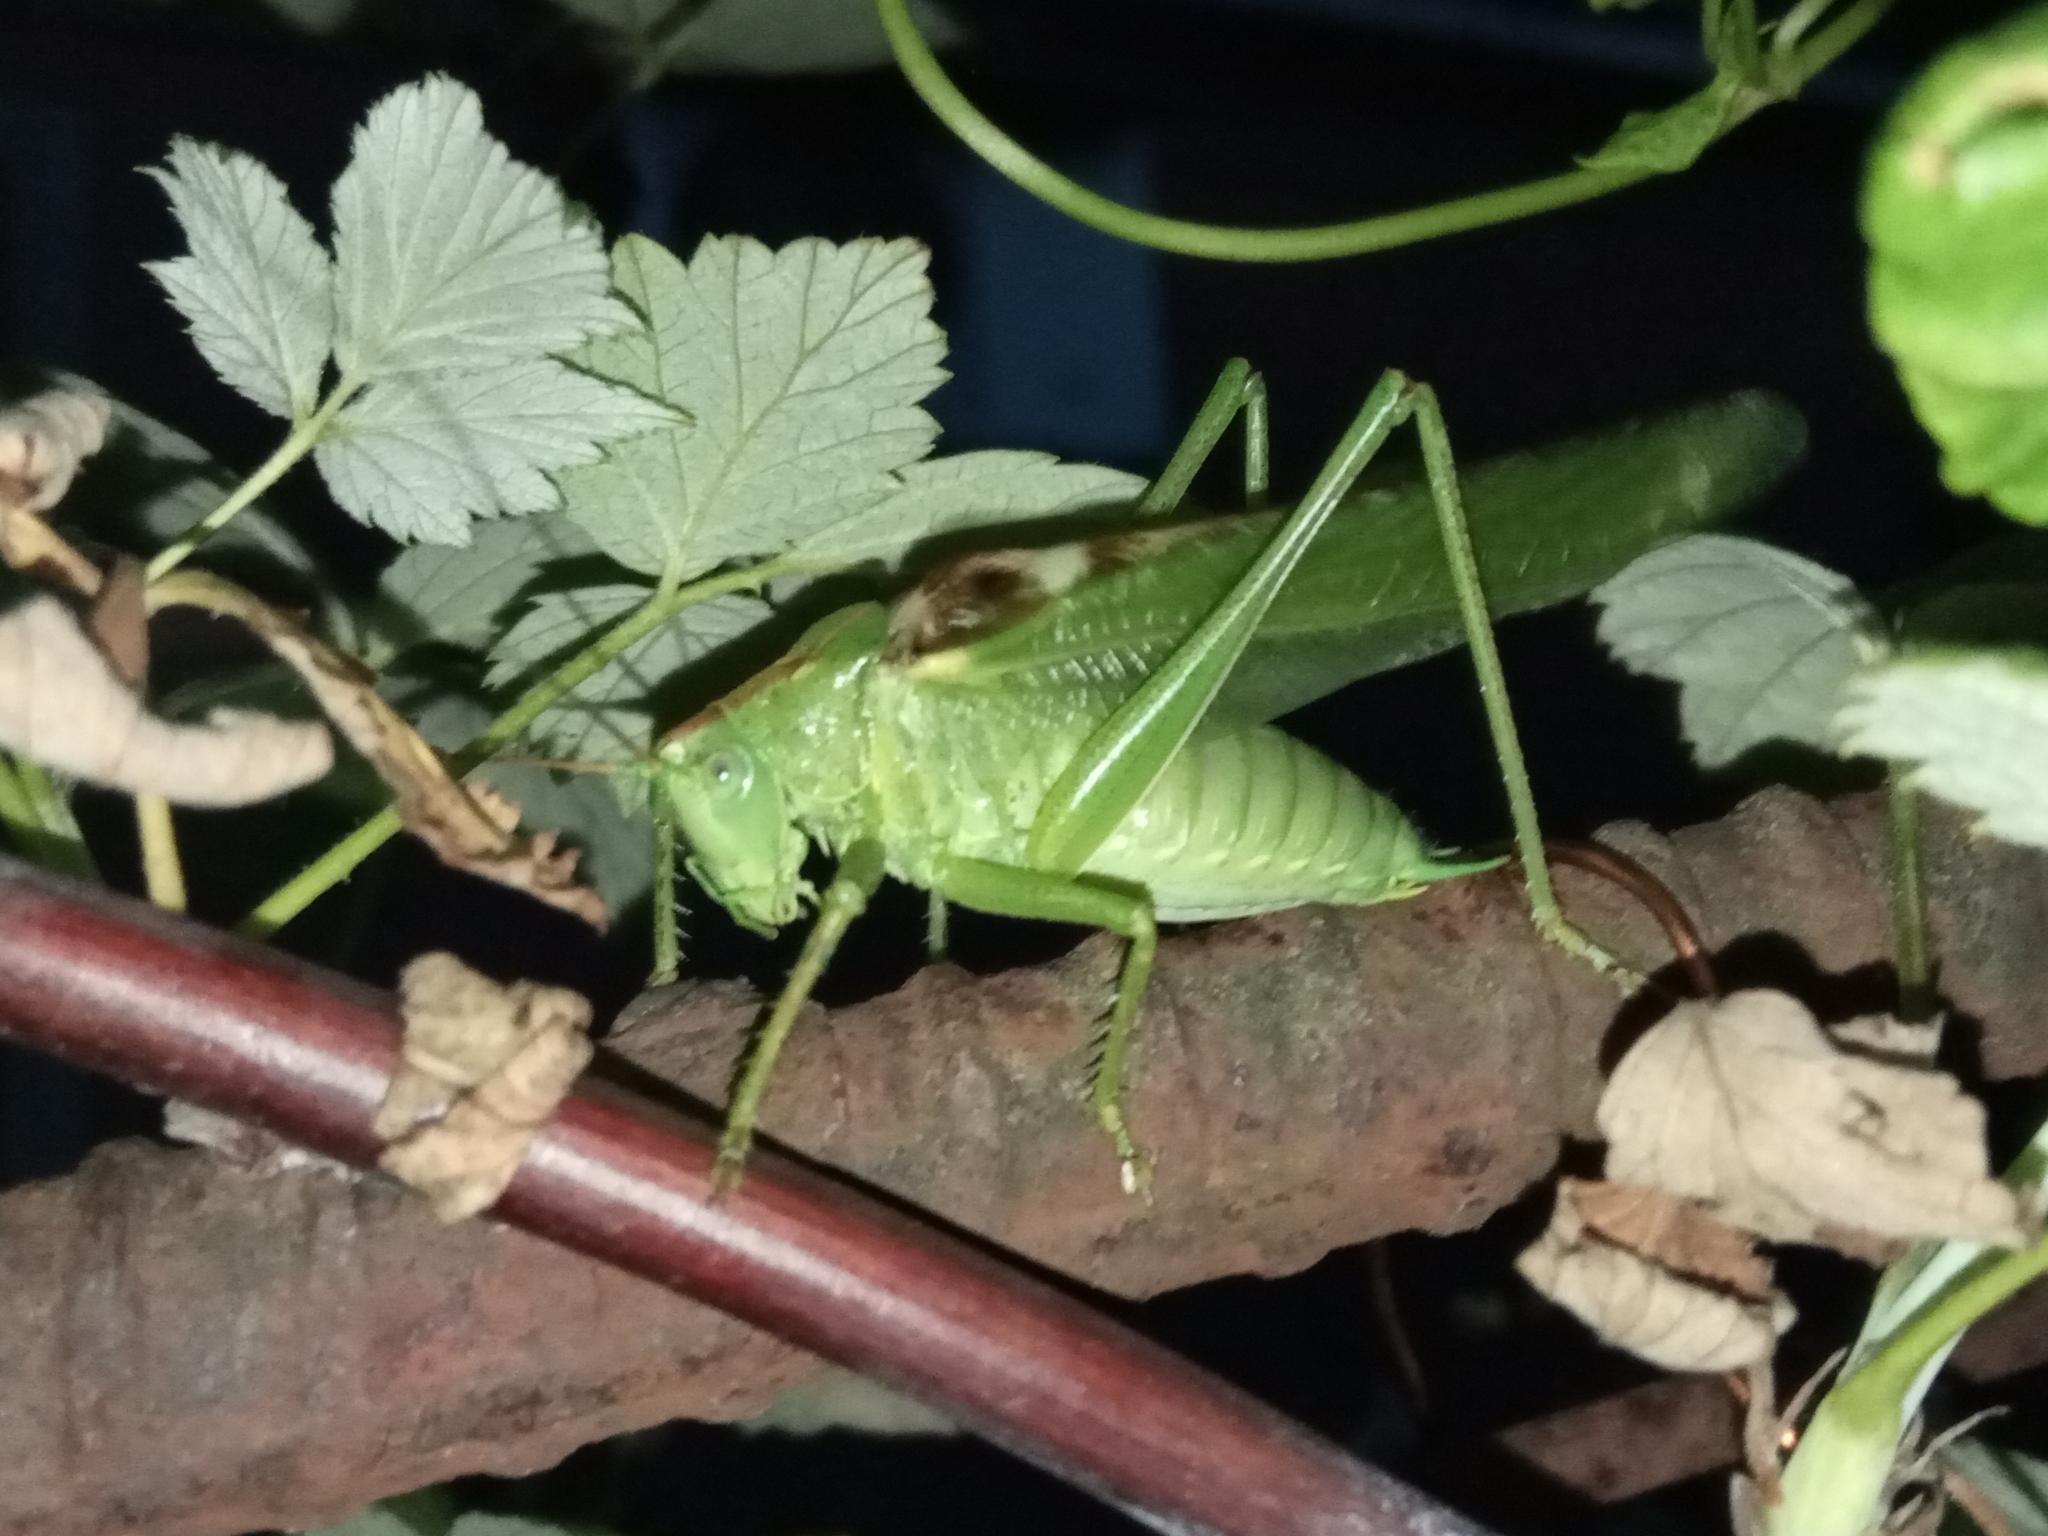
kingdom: Animalia
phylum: Arthropoda
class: Insecta
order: Orthoptera
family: Tettigoniidae
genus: Tettigonia
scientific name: Tettigonia viridissima
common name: Great green bush-cricket
